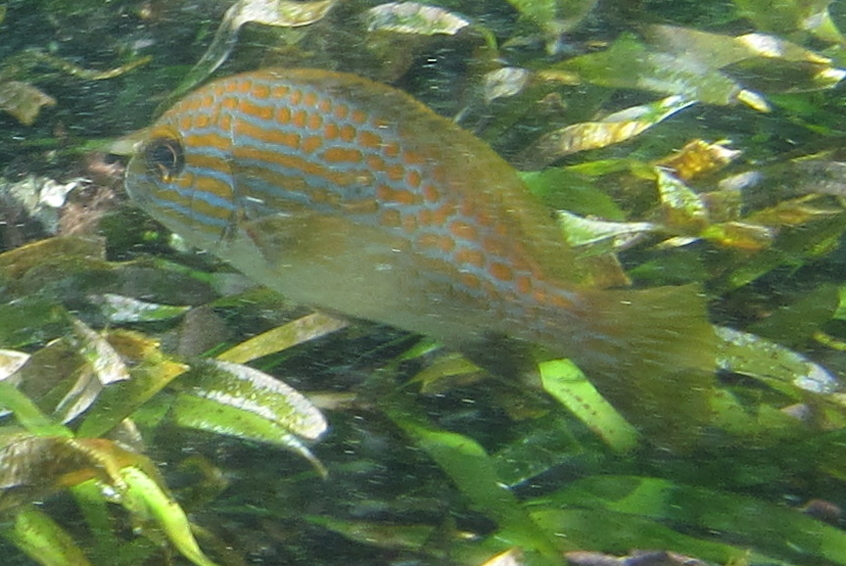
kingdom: Animalia
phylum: Chordata
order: Perciformes
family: Haemulidae
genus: Plectorhinchus
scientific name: Plectorhinchus flavomaculatus
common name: Netted sweetlips
